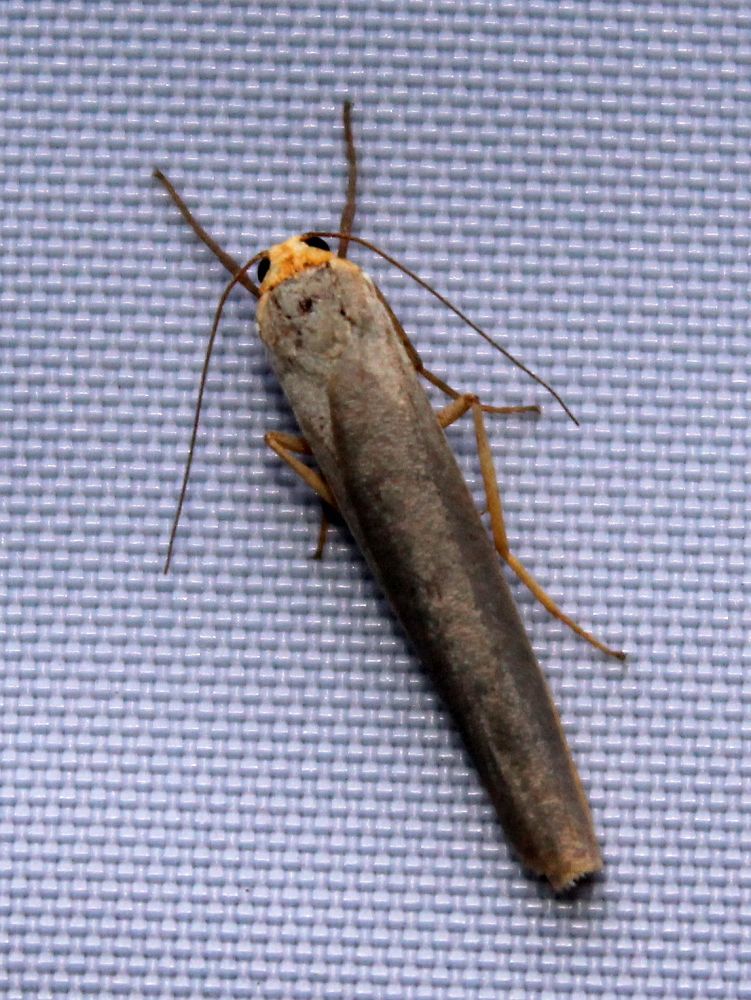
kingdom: Animalia
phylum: Arthropoda
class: Insecta
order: Lepidoptera
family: Erebidae
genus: Manulea
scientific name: Manulea complana
